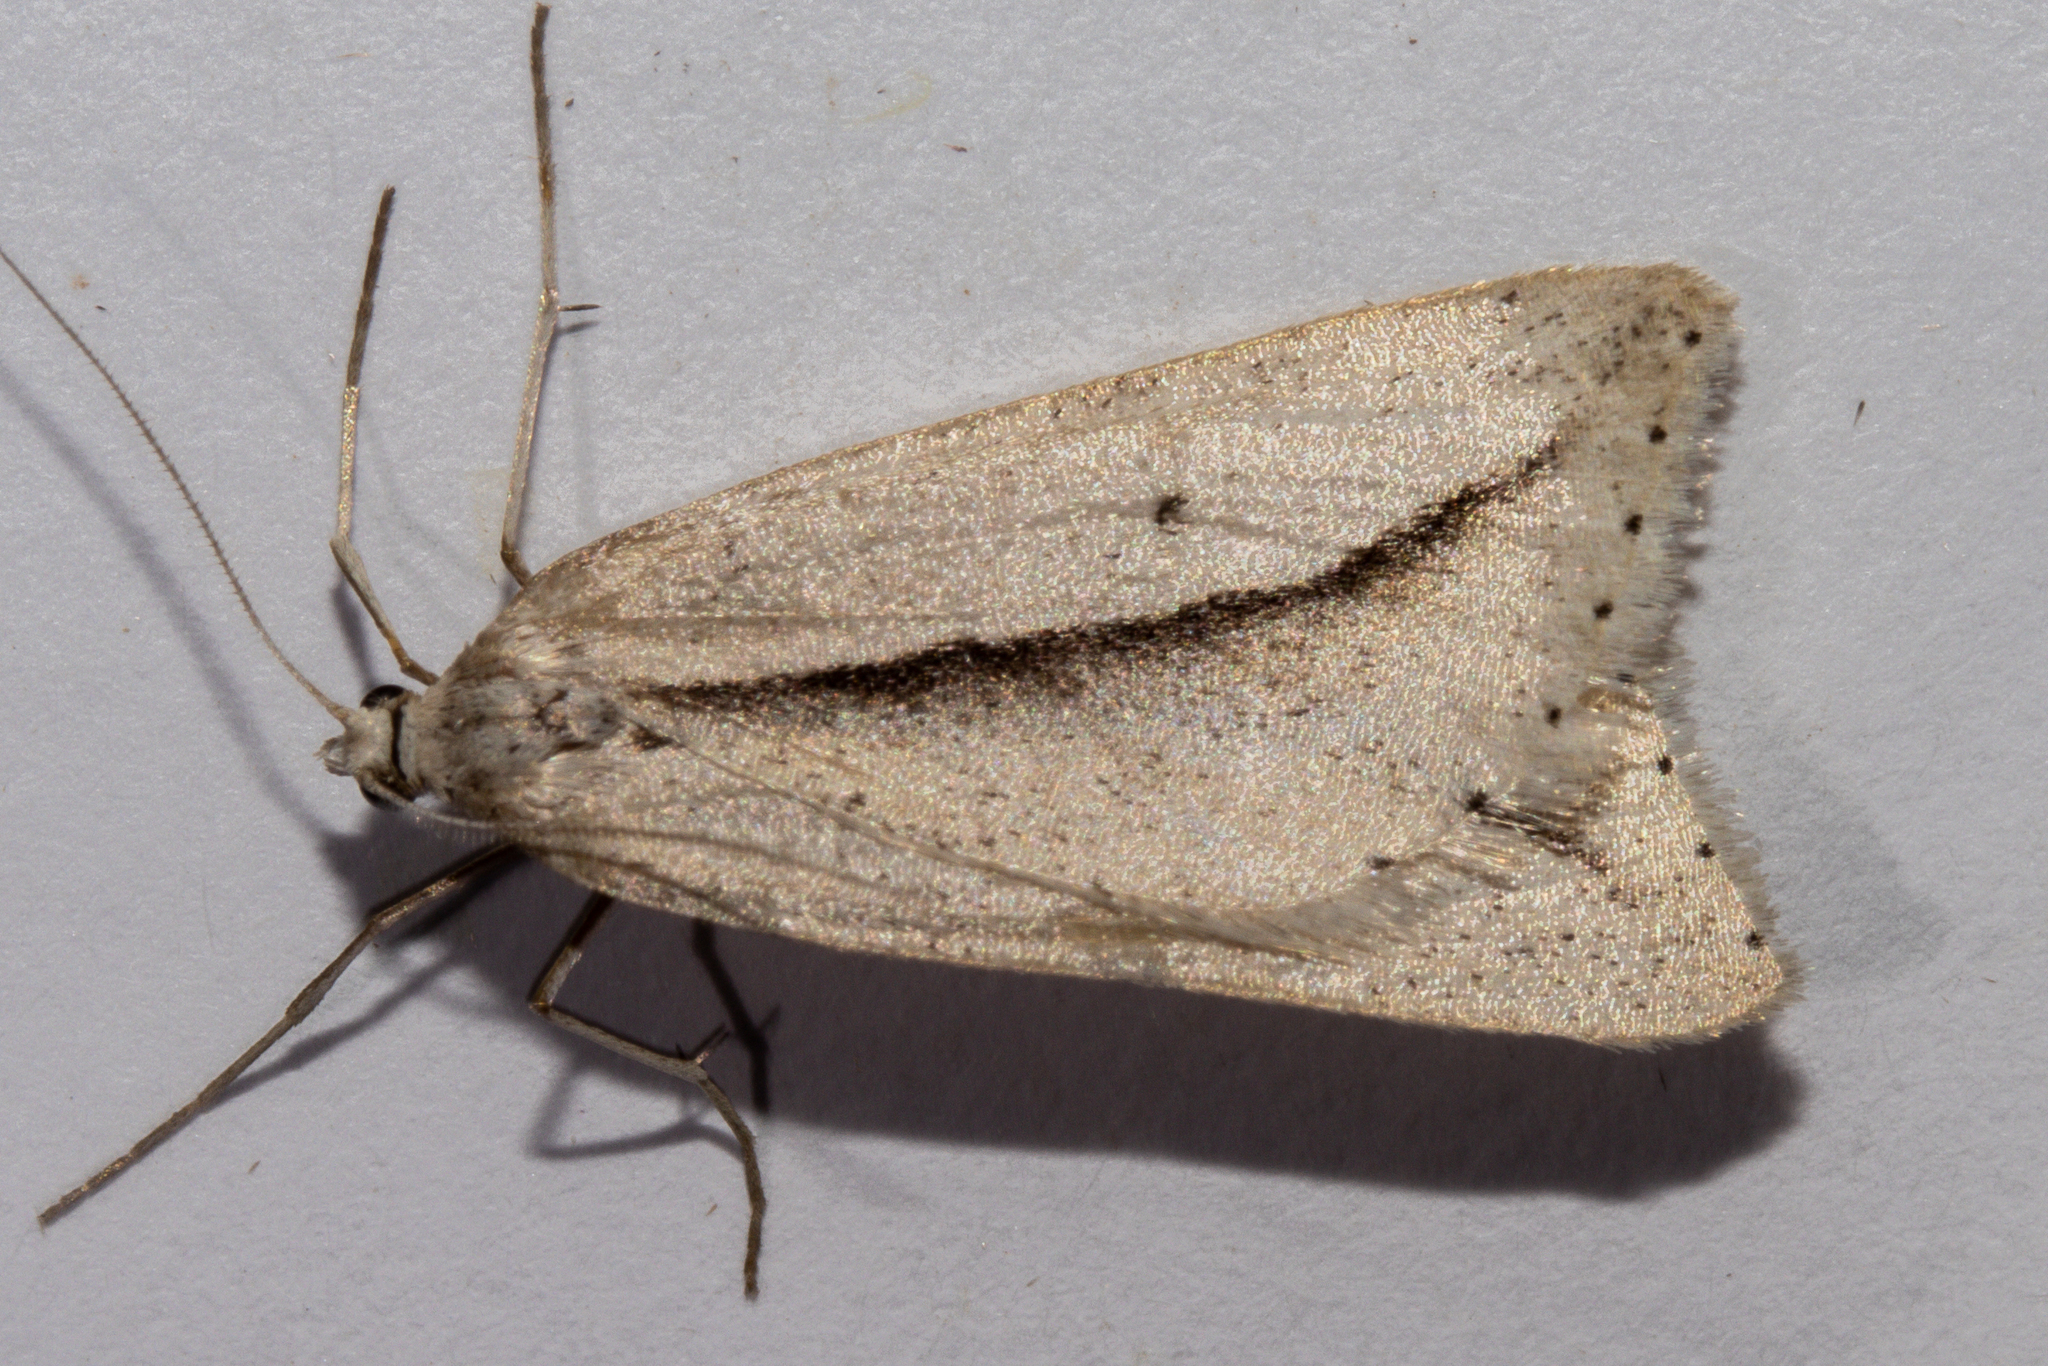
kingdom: Animalia
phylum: Arthropoda
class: Insecta
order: Lepidoptera
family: Geometridae
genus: Theoxena
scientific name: Theoxena scissaria
